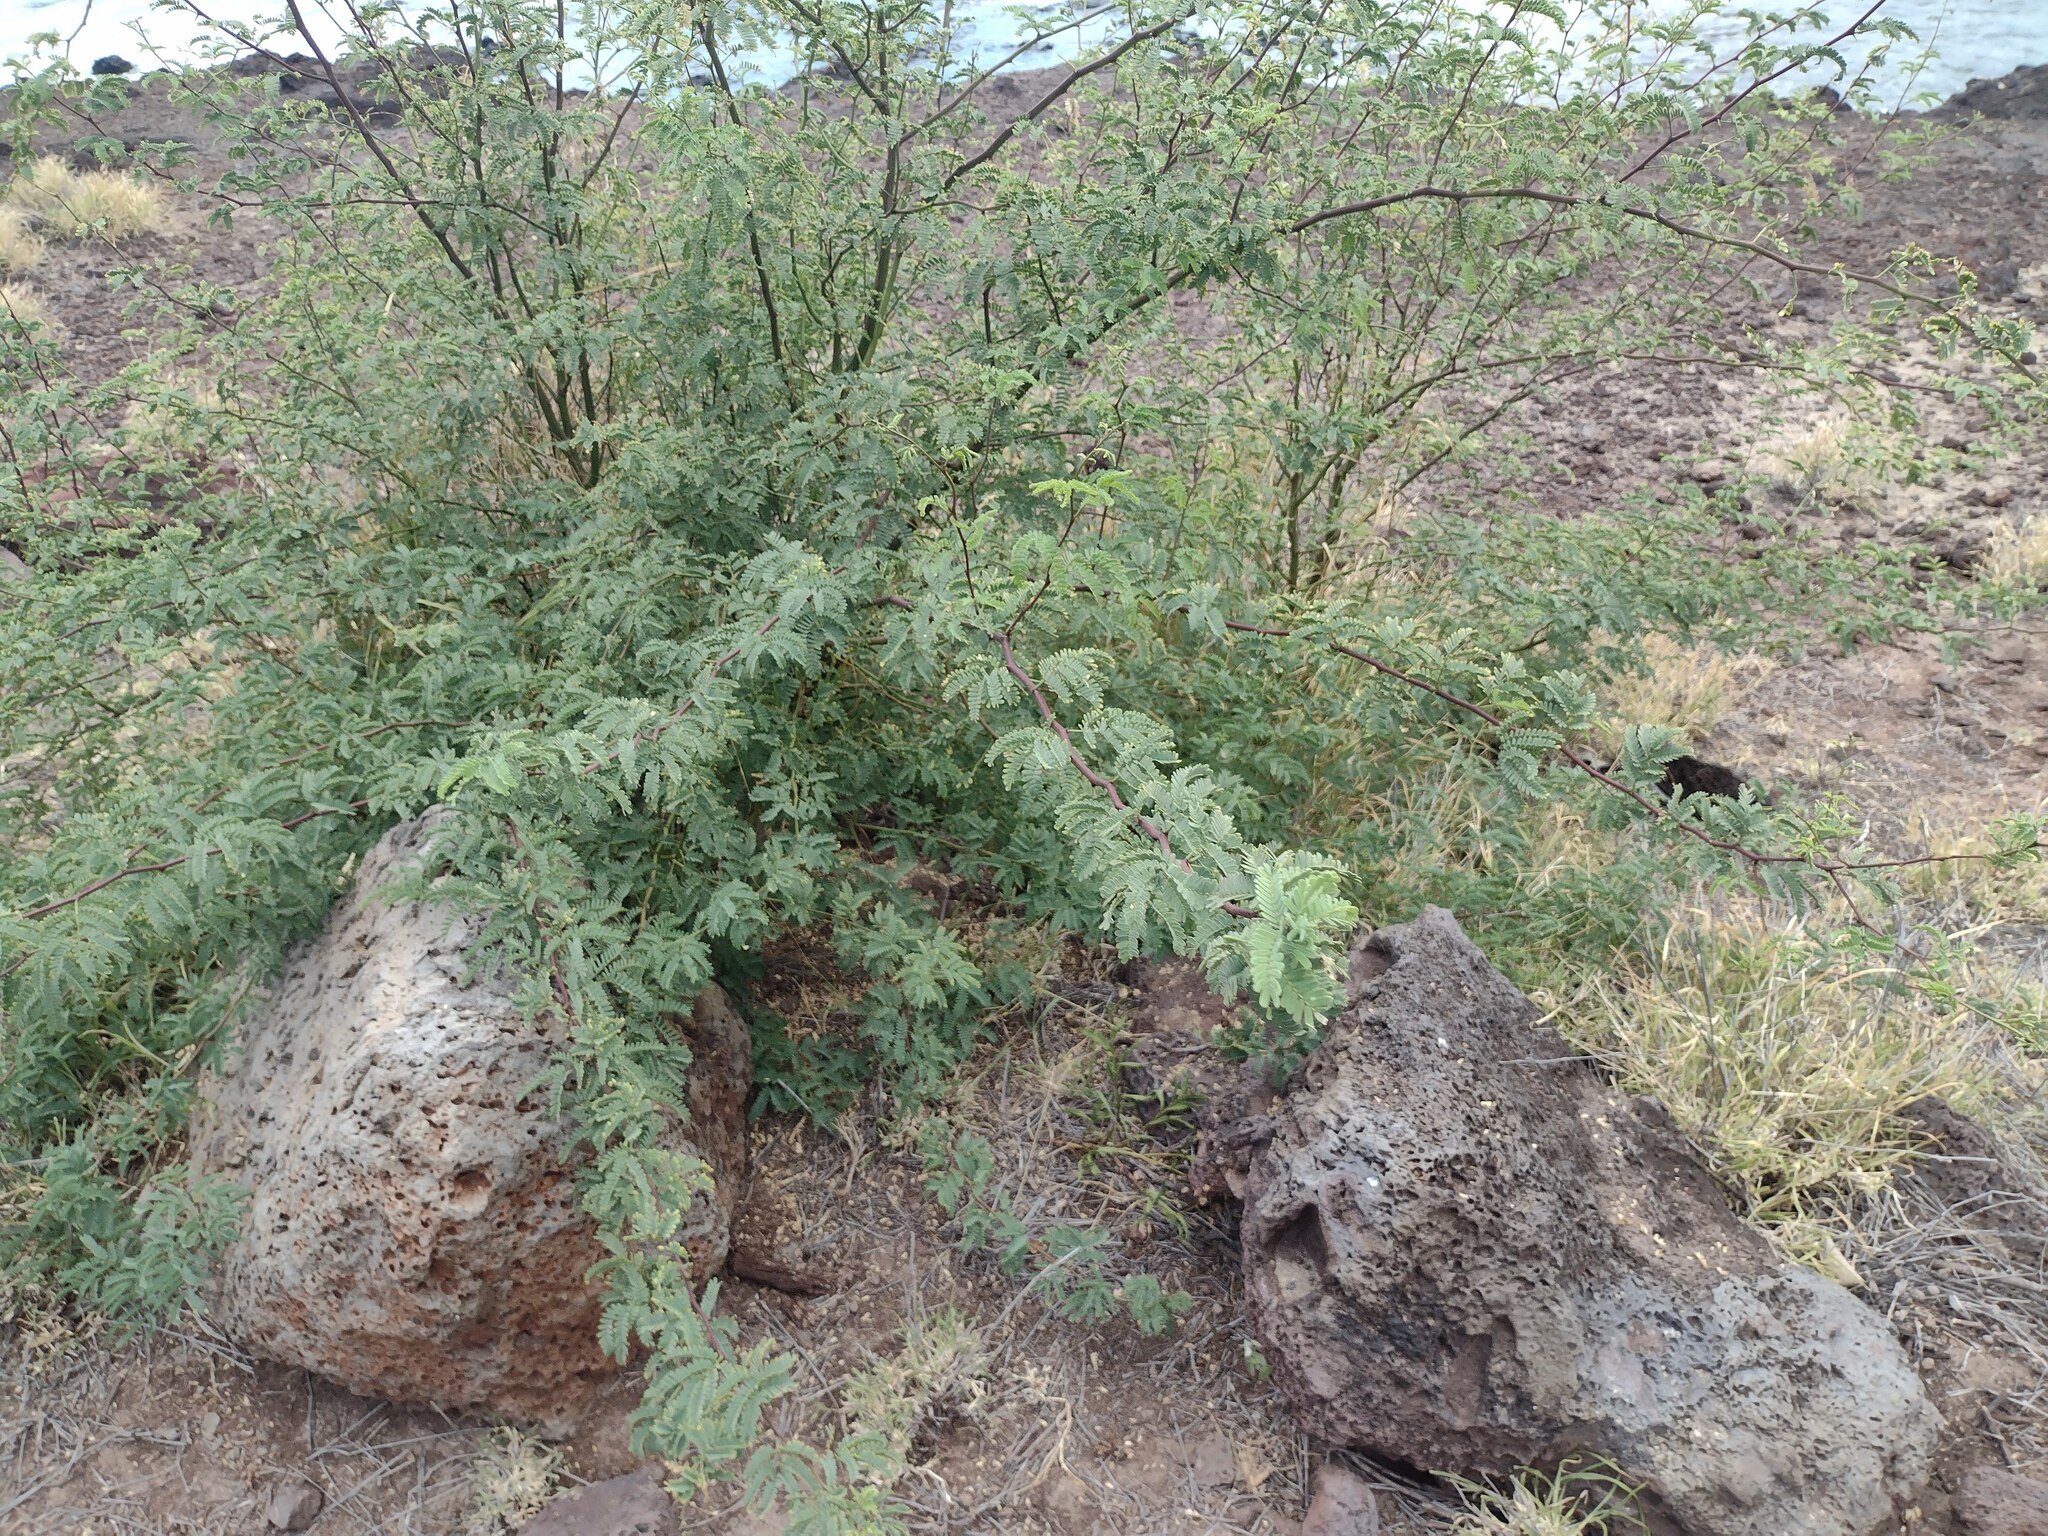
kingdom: Plantae
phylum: Tracheophyta
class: Magnoliopsida
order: Fabales
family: Fabaceae
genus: Prosopis
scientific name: Prosopis pallida
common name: Mesquite
